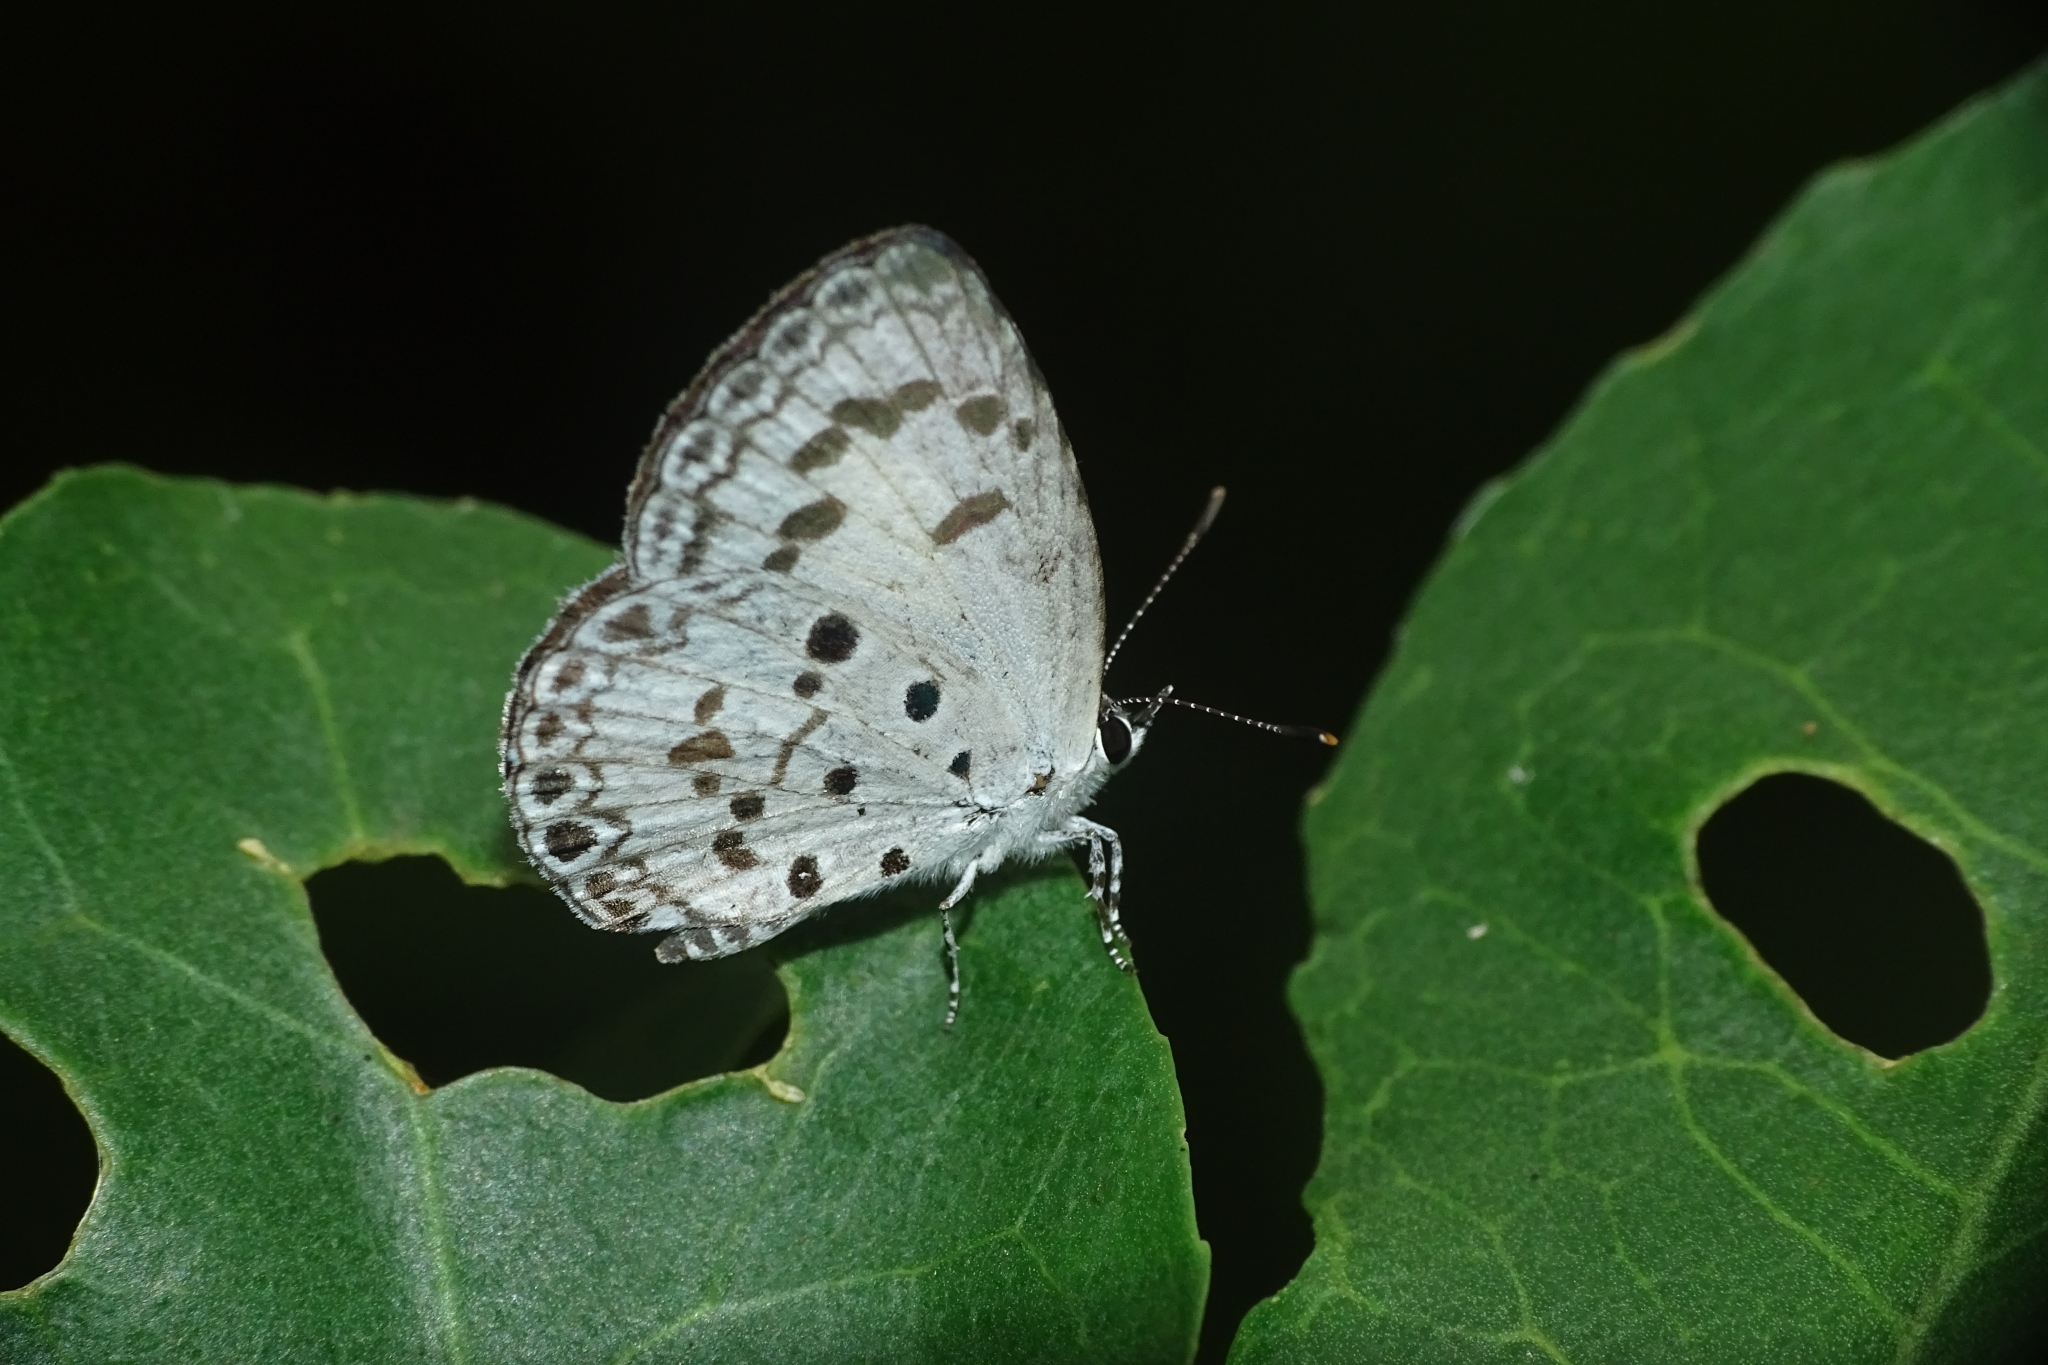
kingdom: Animalia
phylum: Arthropoda
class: Insecta
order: Lepidoptera
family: Lycaenidae
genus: Acytolepis
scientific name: Acytolepis puspa
